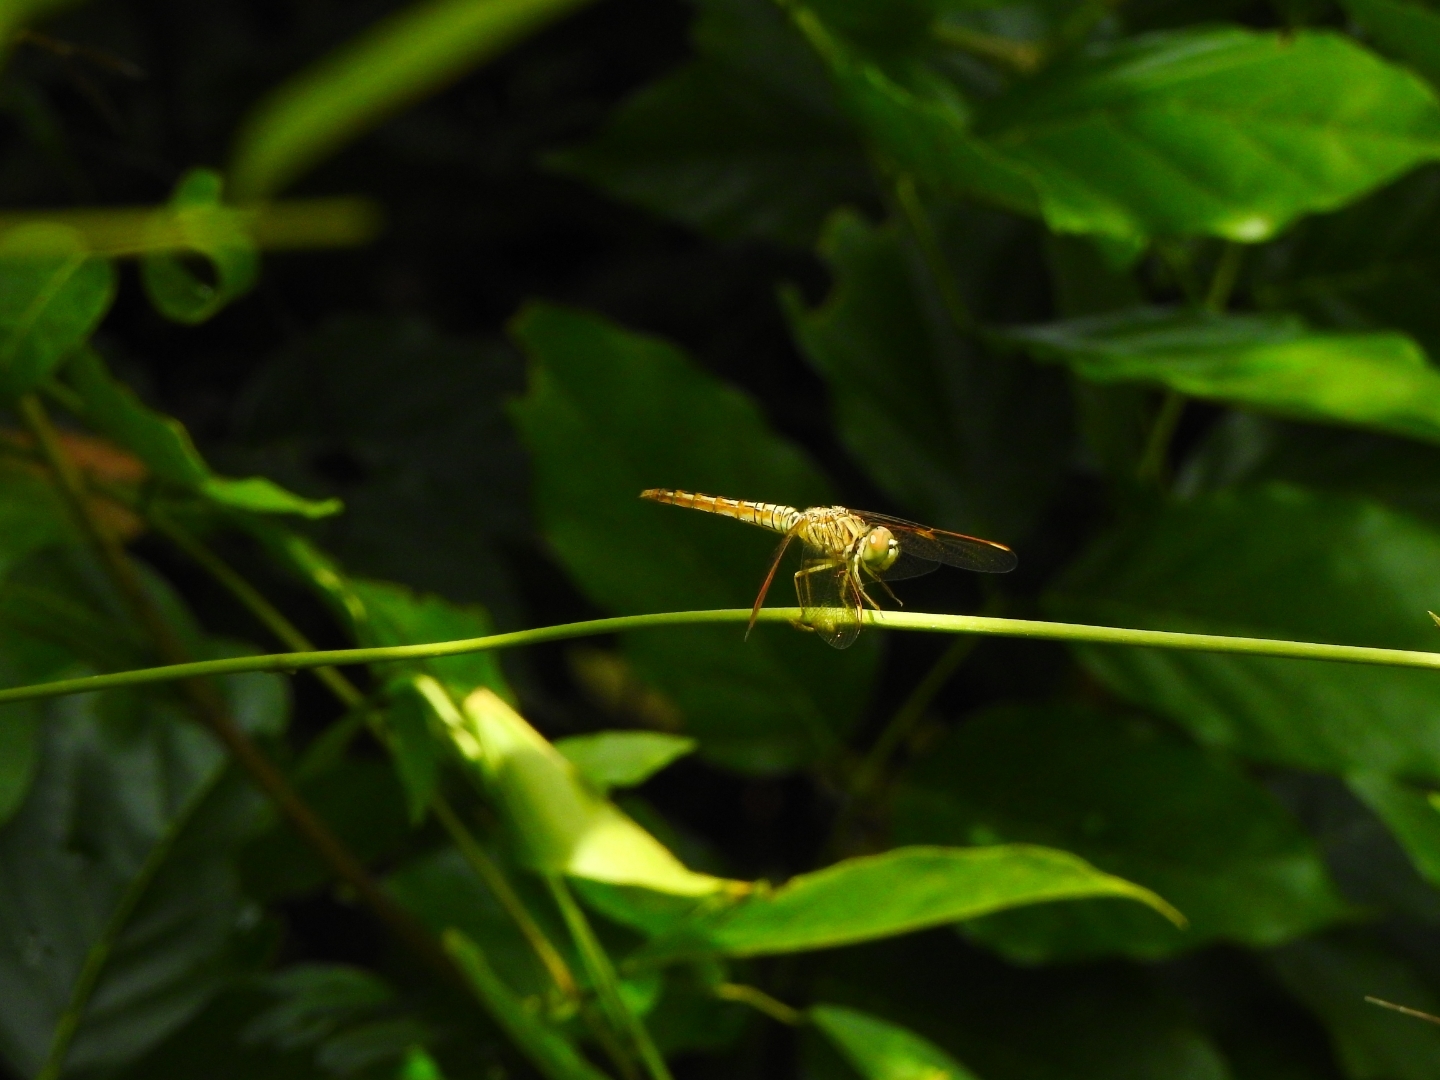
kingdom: Animalia
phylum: Arthropoda
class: Insecta
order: Odonata
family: Libellulidae
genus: Brachythemis
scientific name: Brachythemis contaminata
